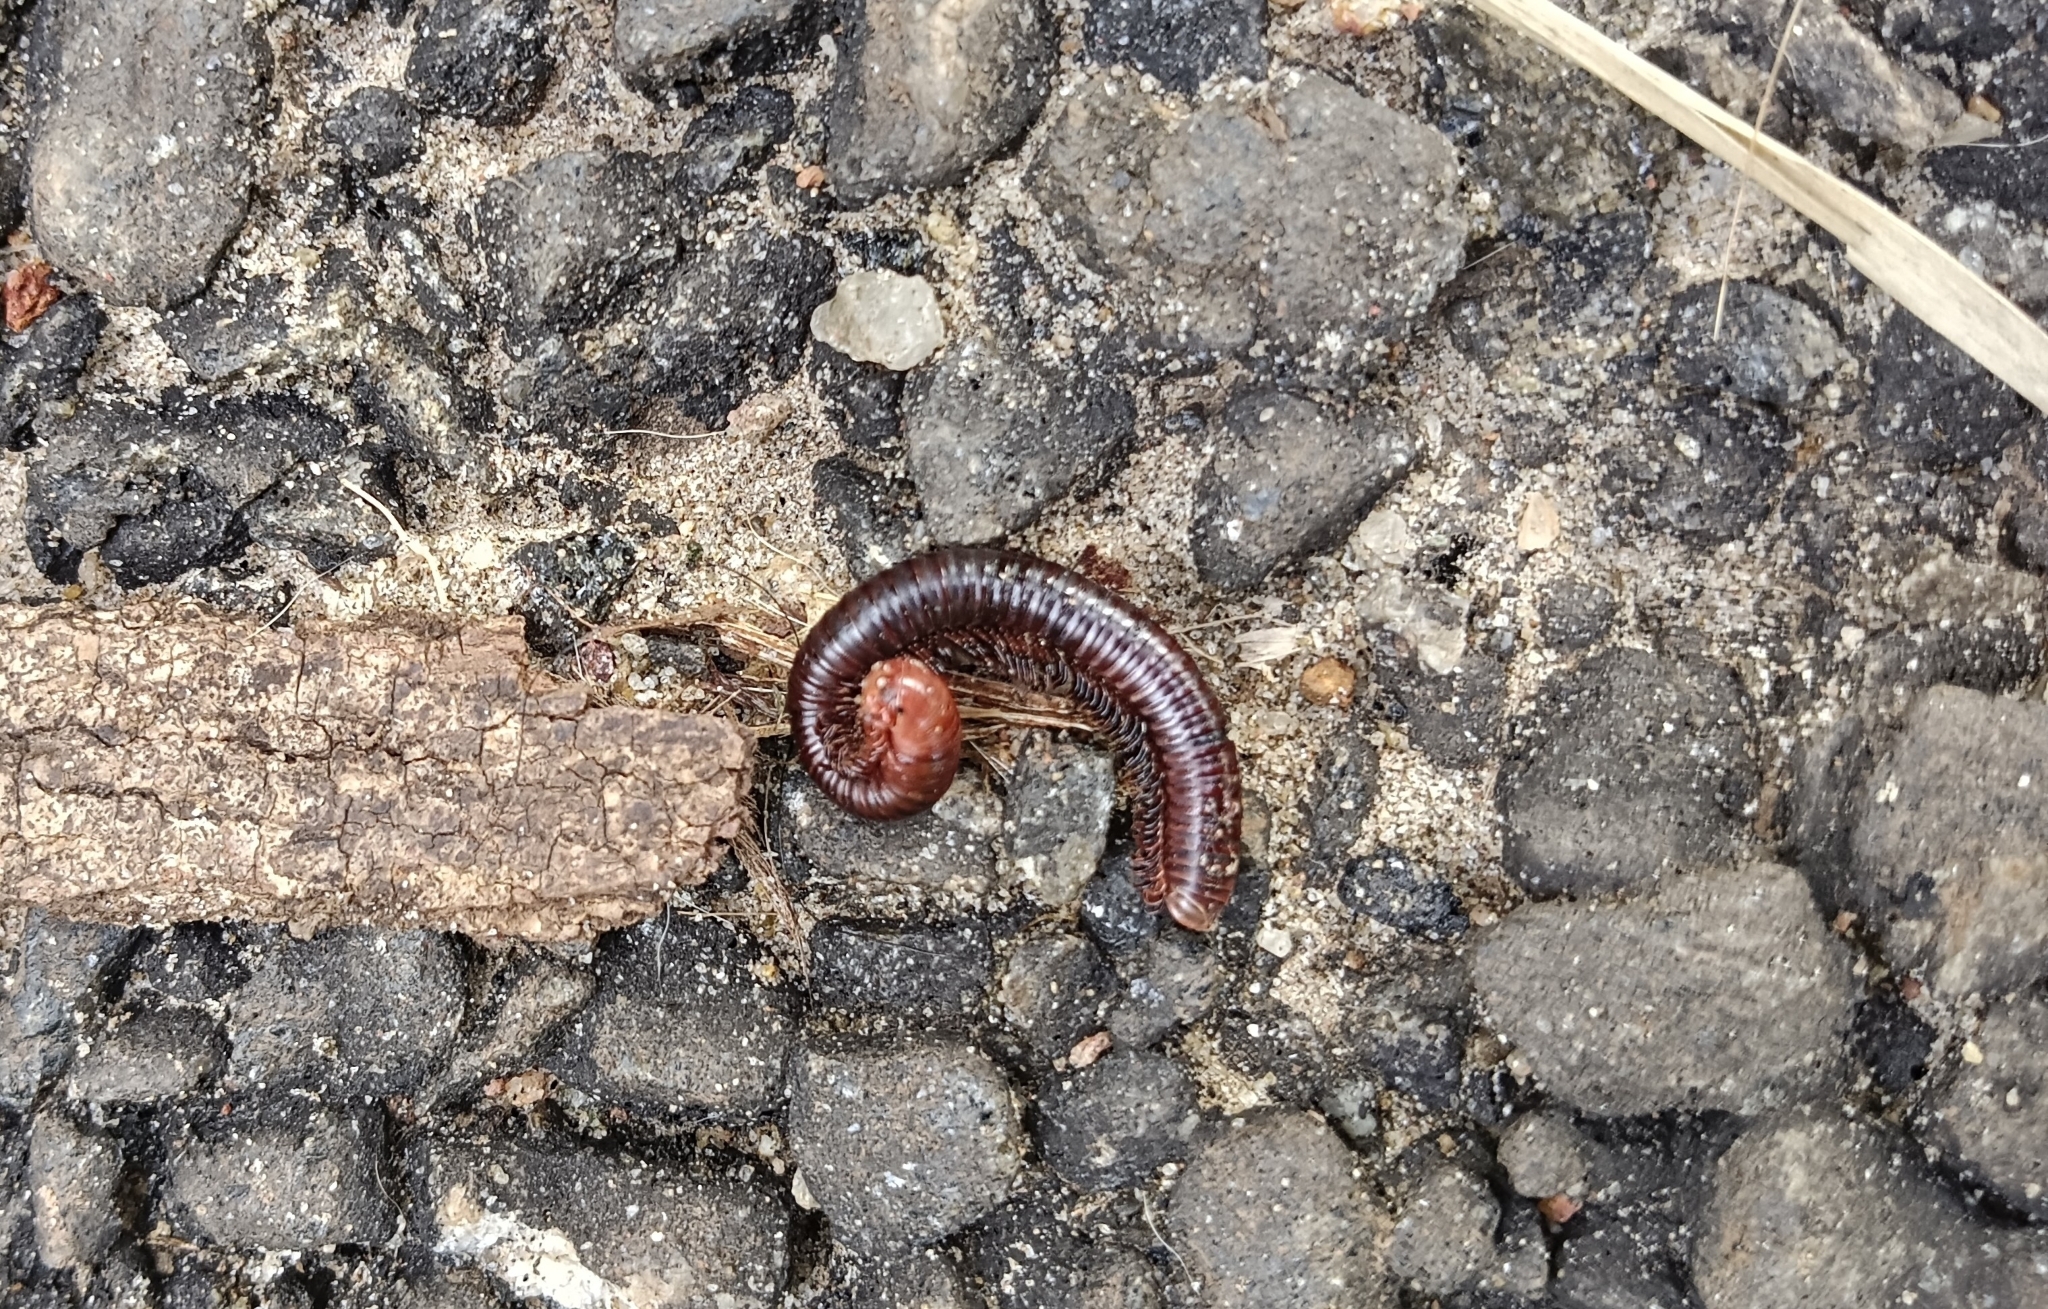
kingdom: Animalia
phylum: Arthropoda
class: Diplopoda
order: Spirobolida
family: Pachybolidae
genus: Trigoniulus
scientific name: Trigoniulus corallinus
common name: Millipede
